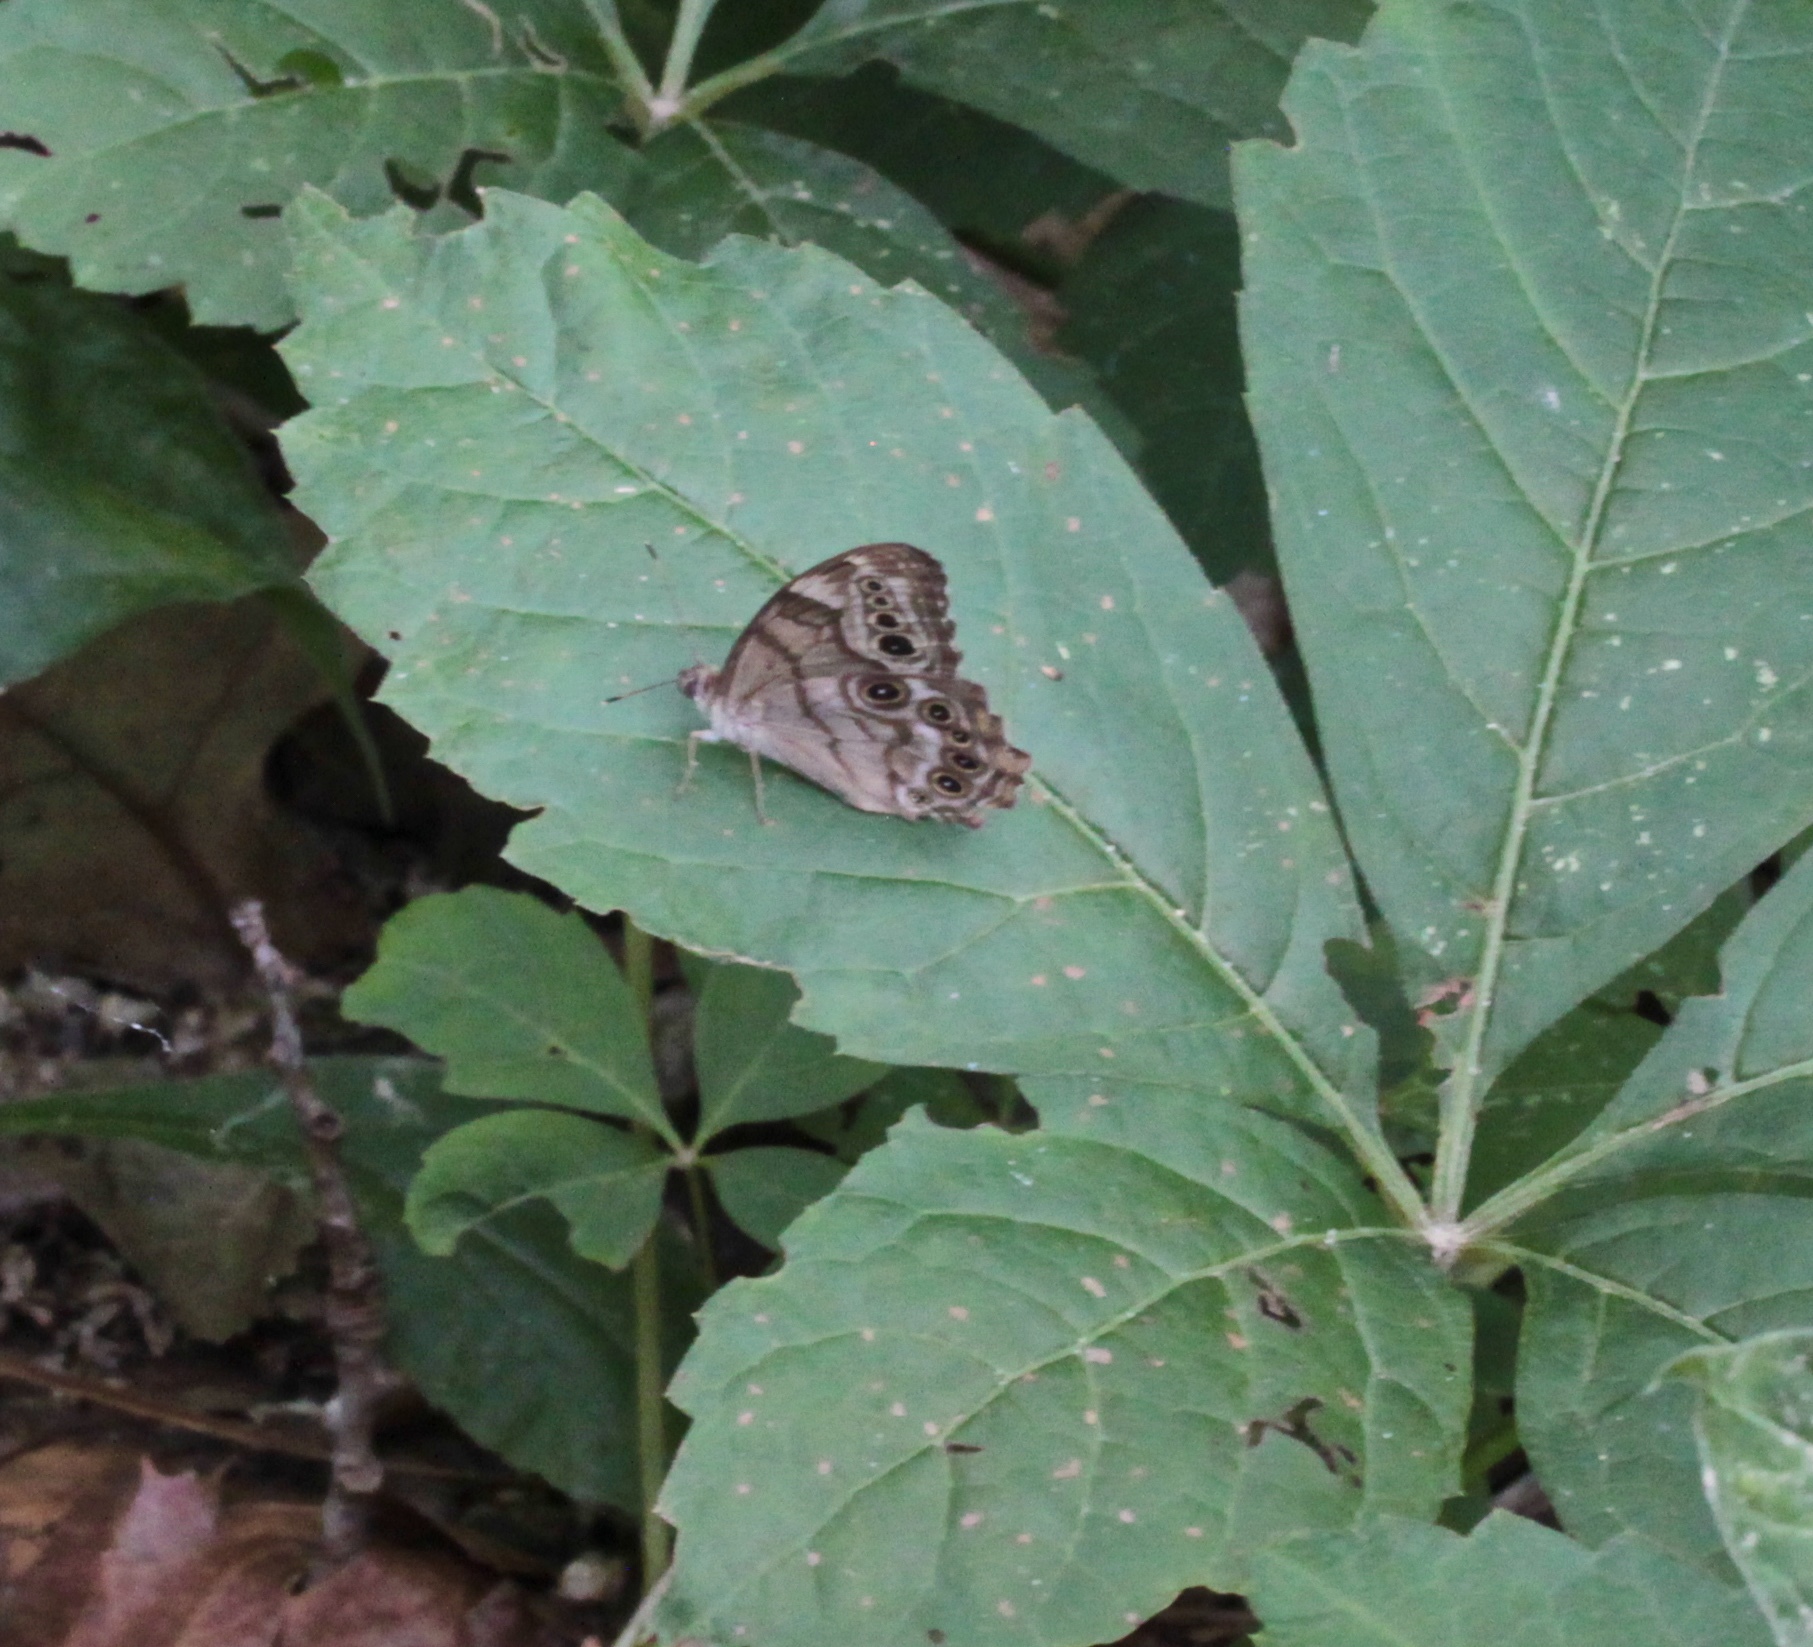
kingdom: Animalia
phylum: Arthropoda
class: Insecta
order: Lepidoptera
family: Nymphalidae
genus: Lethe
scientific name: Lethe anthedon
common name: Northern pearly-eye
